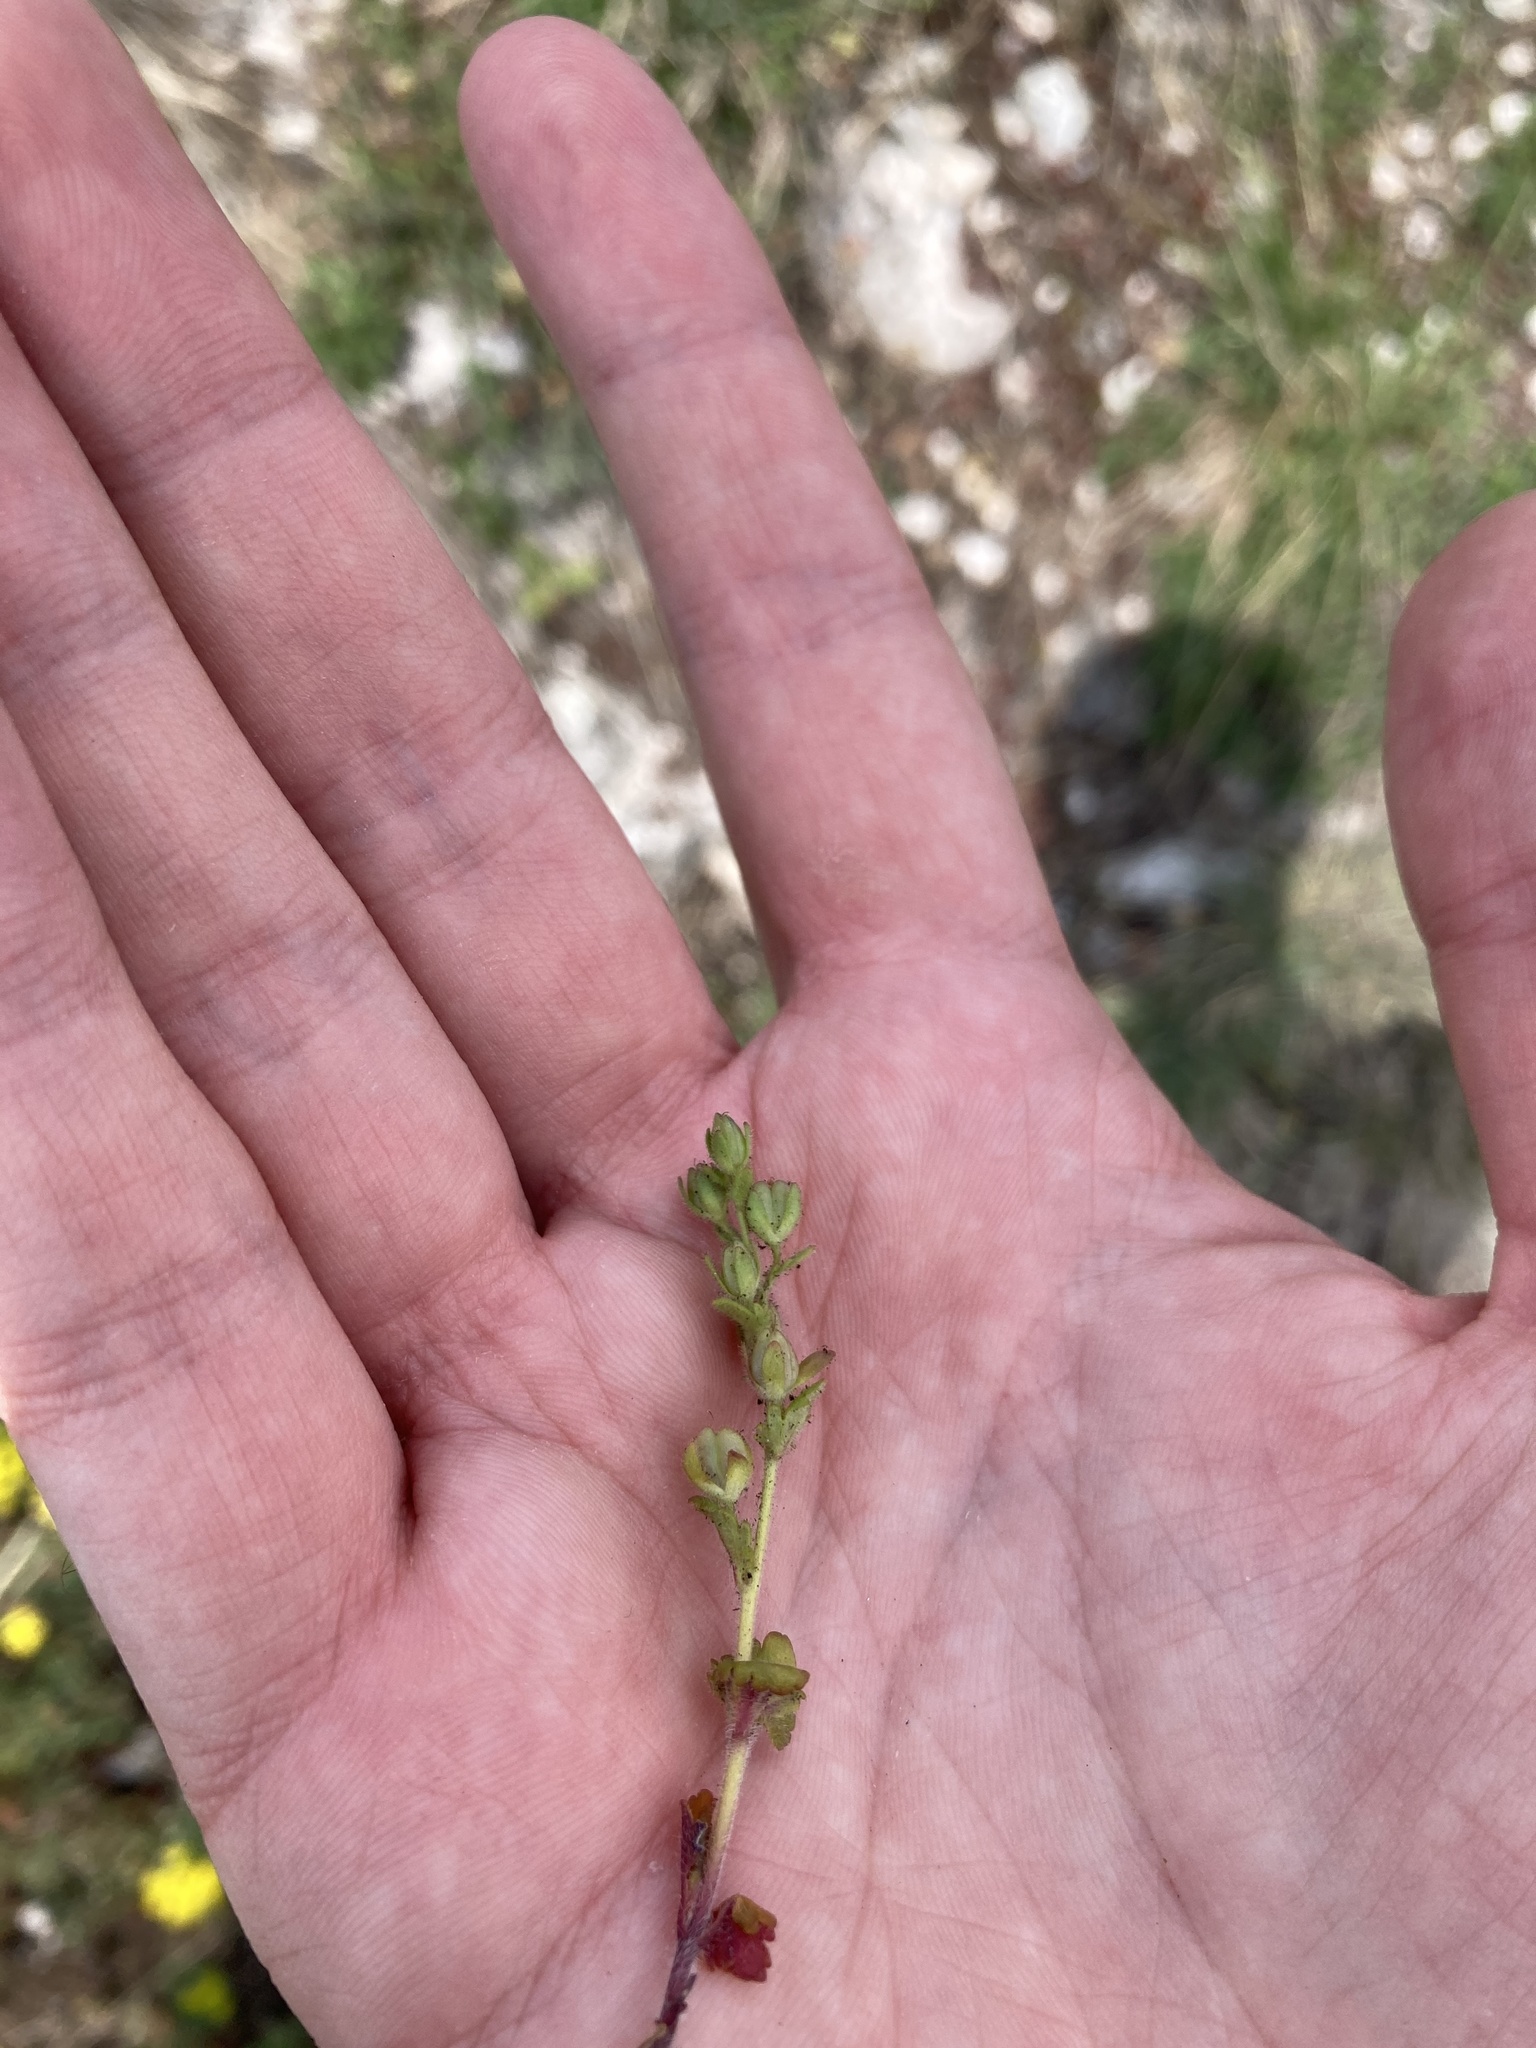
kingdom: Plantae
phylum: Tracheophyta
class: Magnoliopsida
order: Lamiales
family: Plantaginaceae
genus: Veronica
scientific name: Veronica praecox
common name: Breckland speedwell
